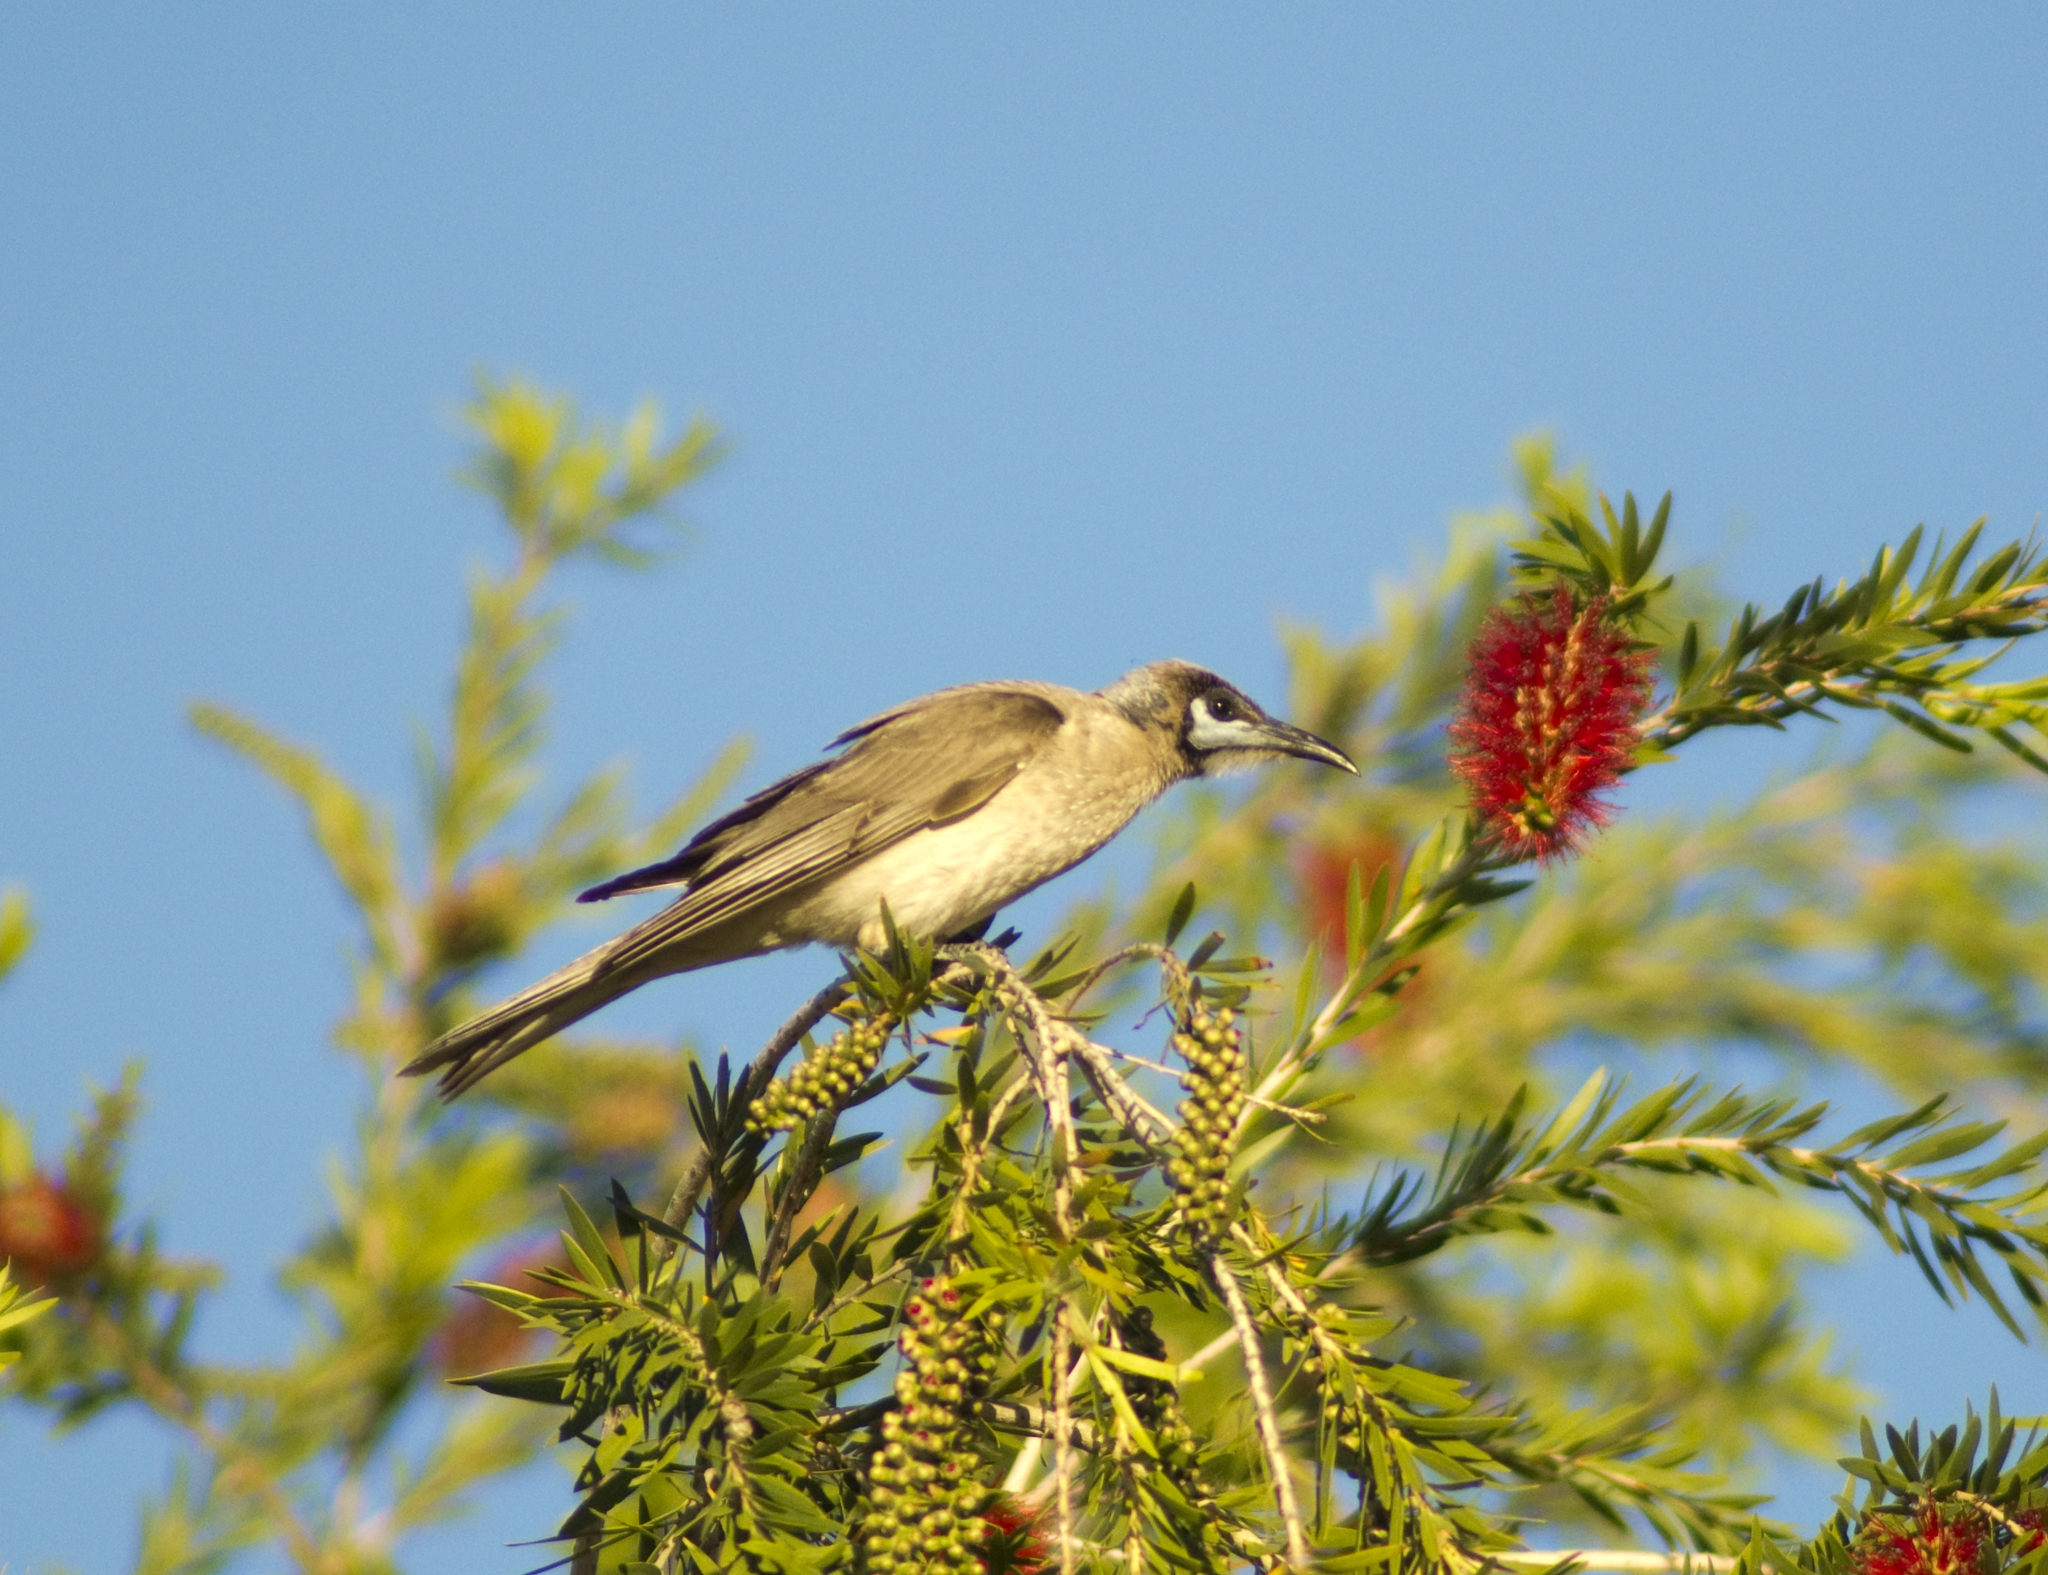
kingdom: Animalia
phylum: Chordata
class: Aves
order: Passeriformes
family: Meliphagidae
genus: Philemon
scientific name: Philemon citreogularis
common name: Little friarbird
